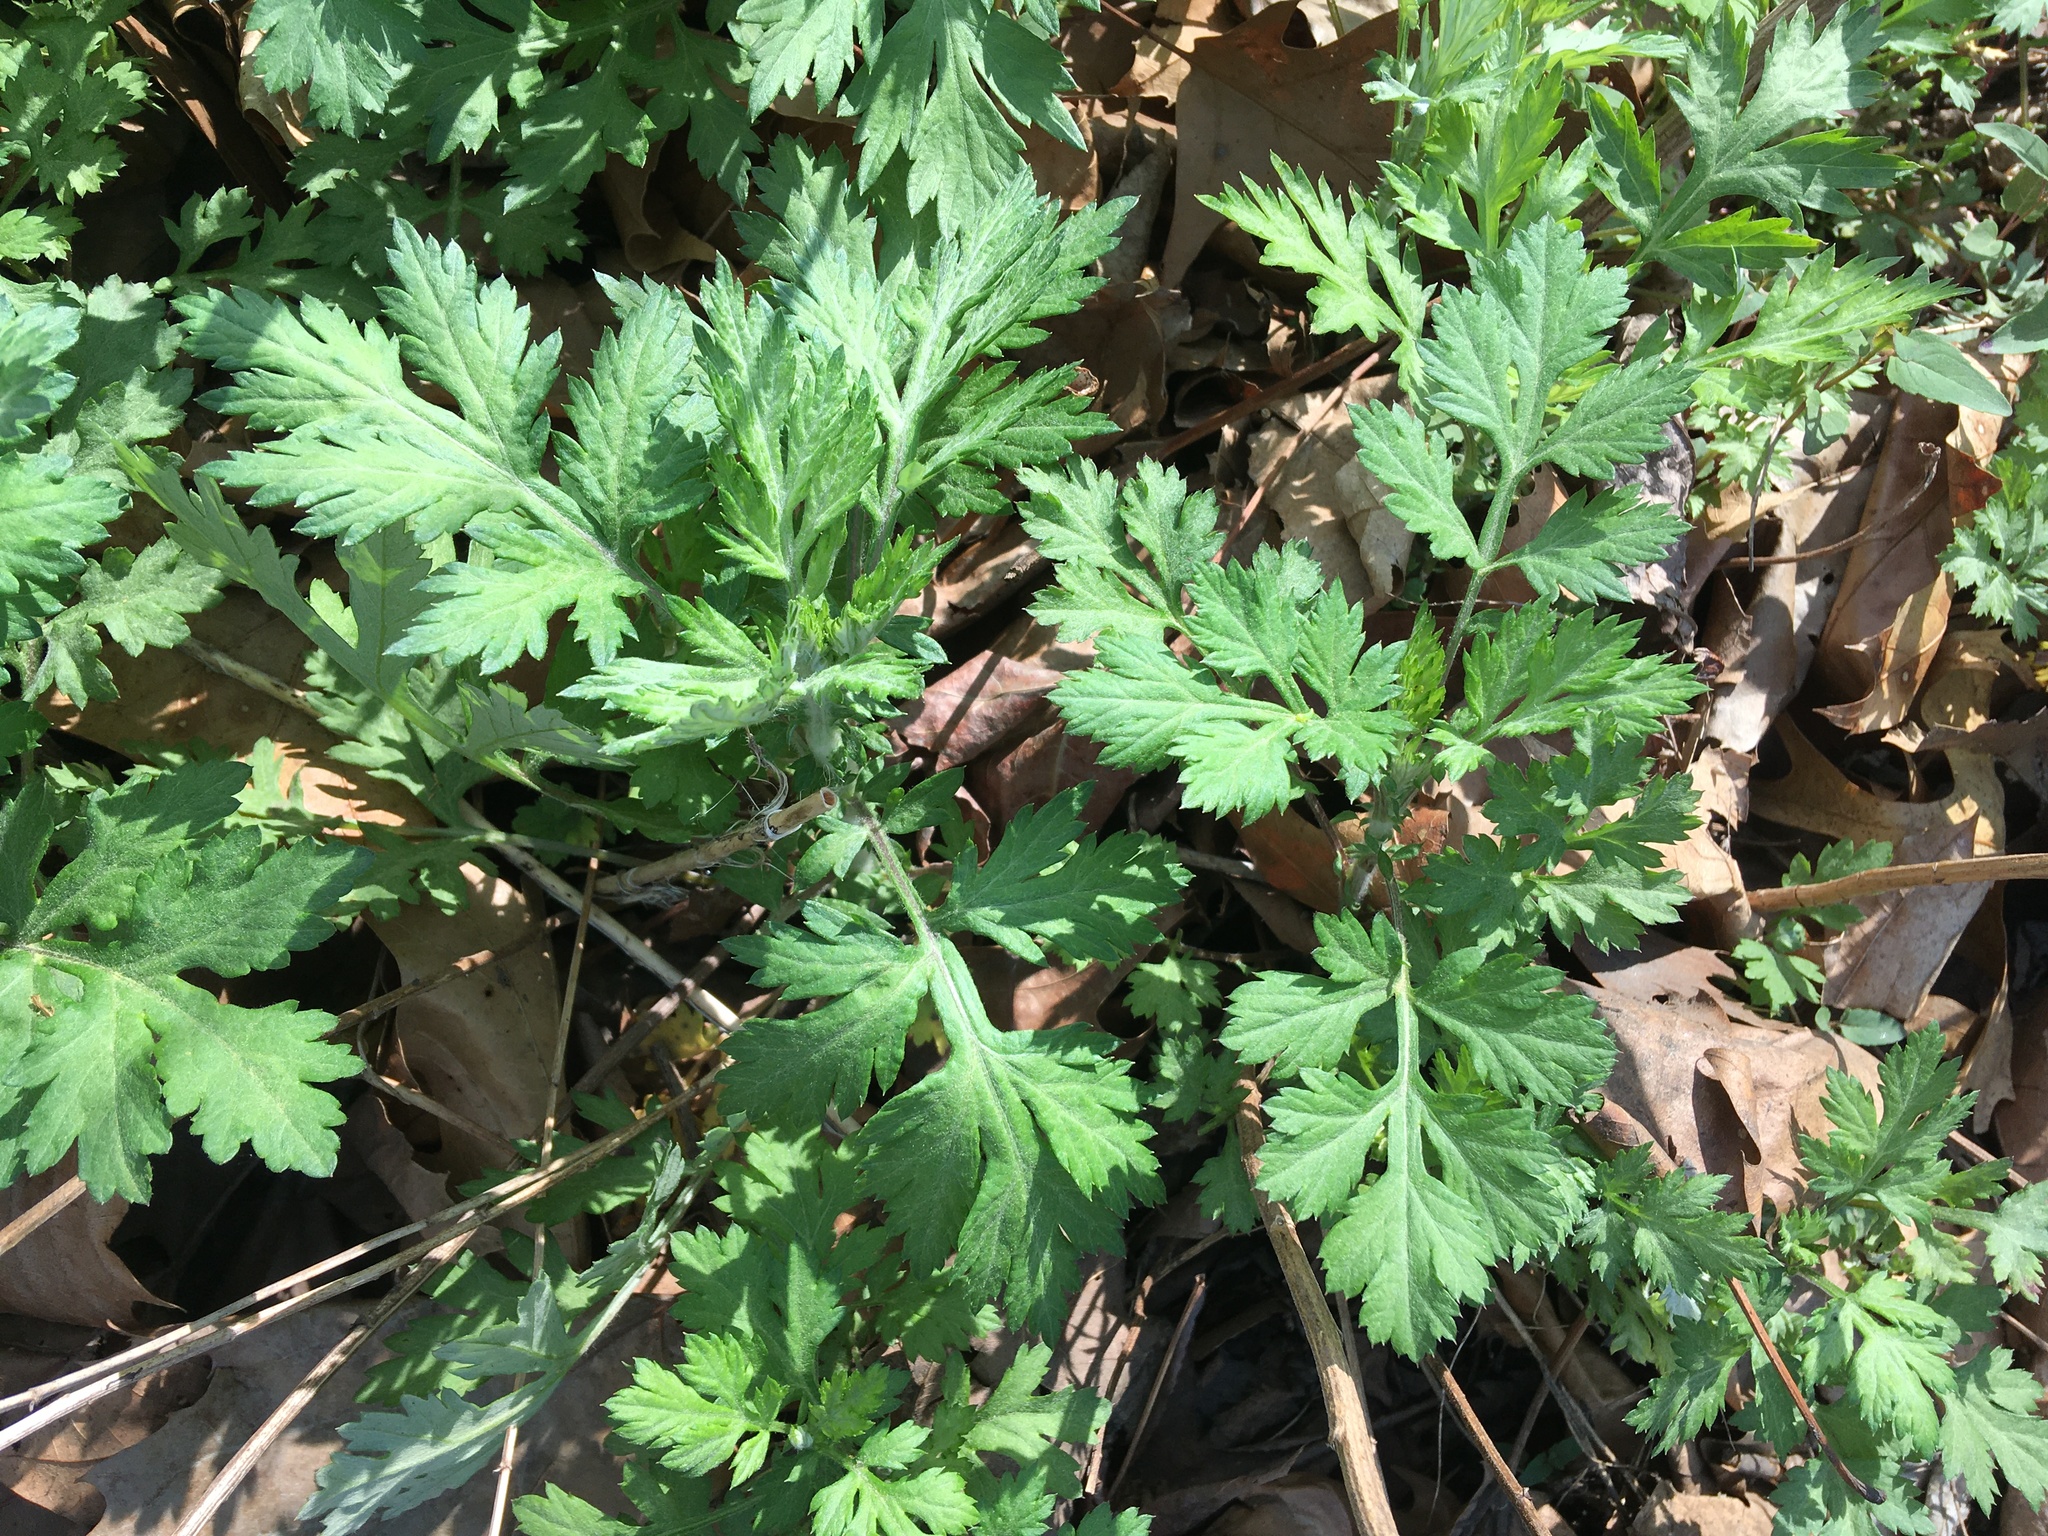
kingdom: Plantae
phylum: Tracheophyta
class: Magnoliopsida
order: Asterales
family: Asteraceae
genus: Artemisia
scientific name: Artemisia vulgaris
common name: Mugwort
